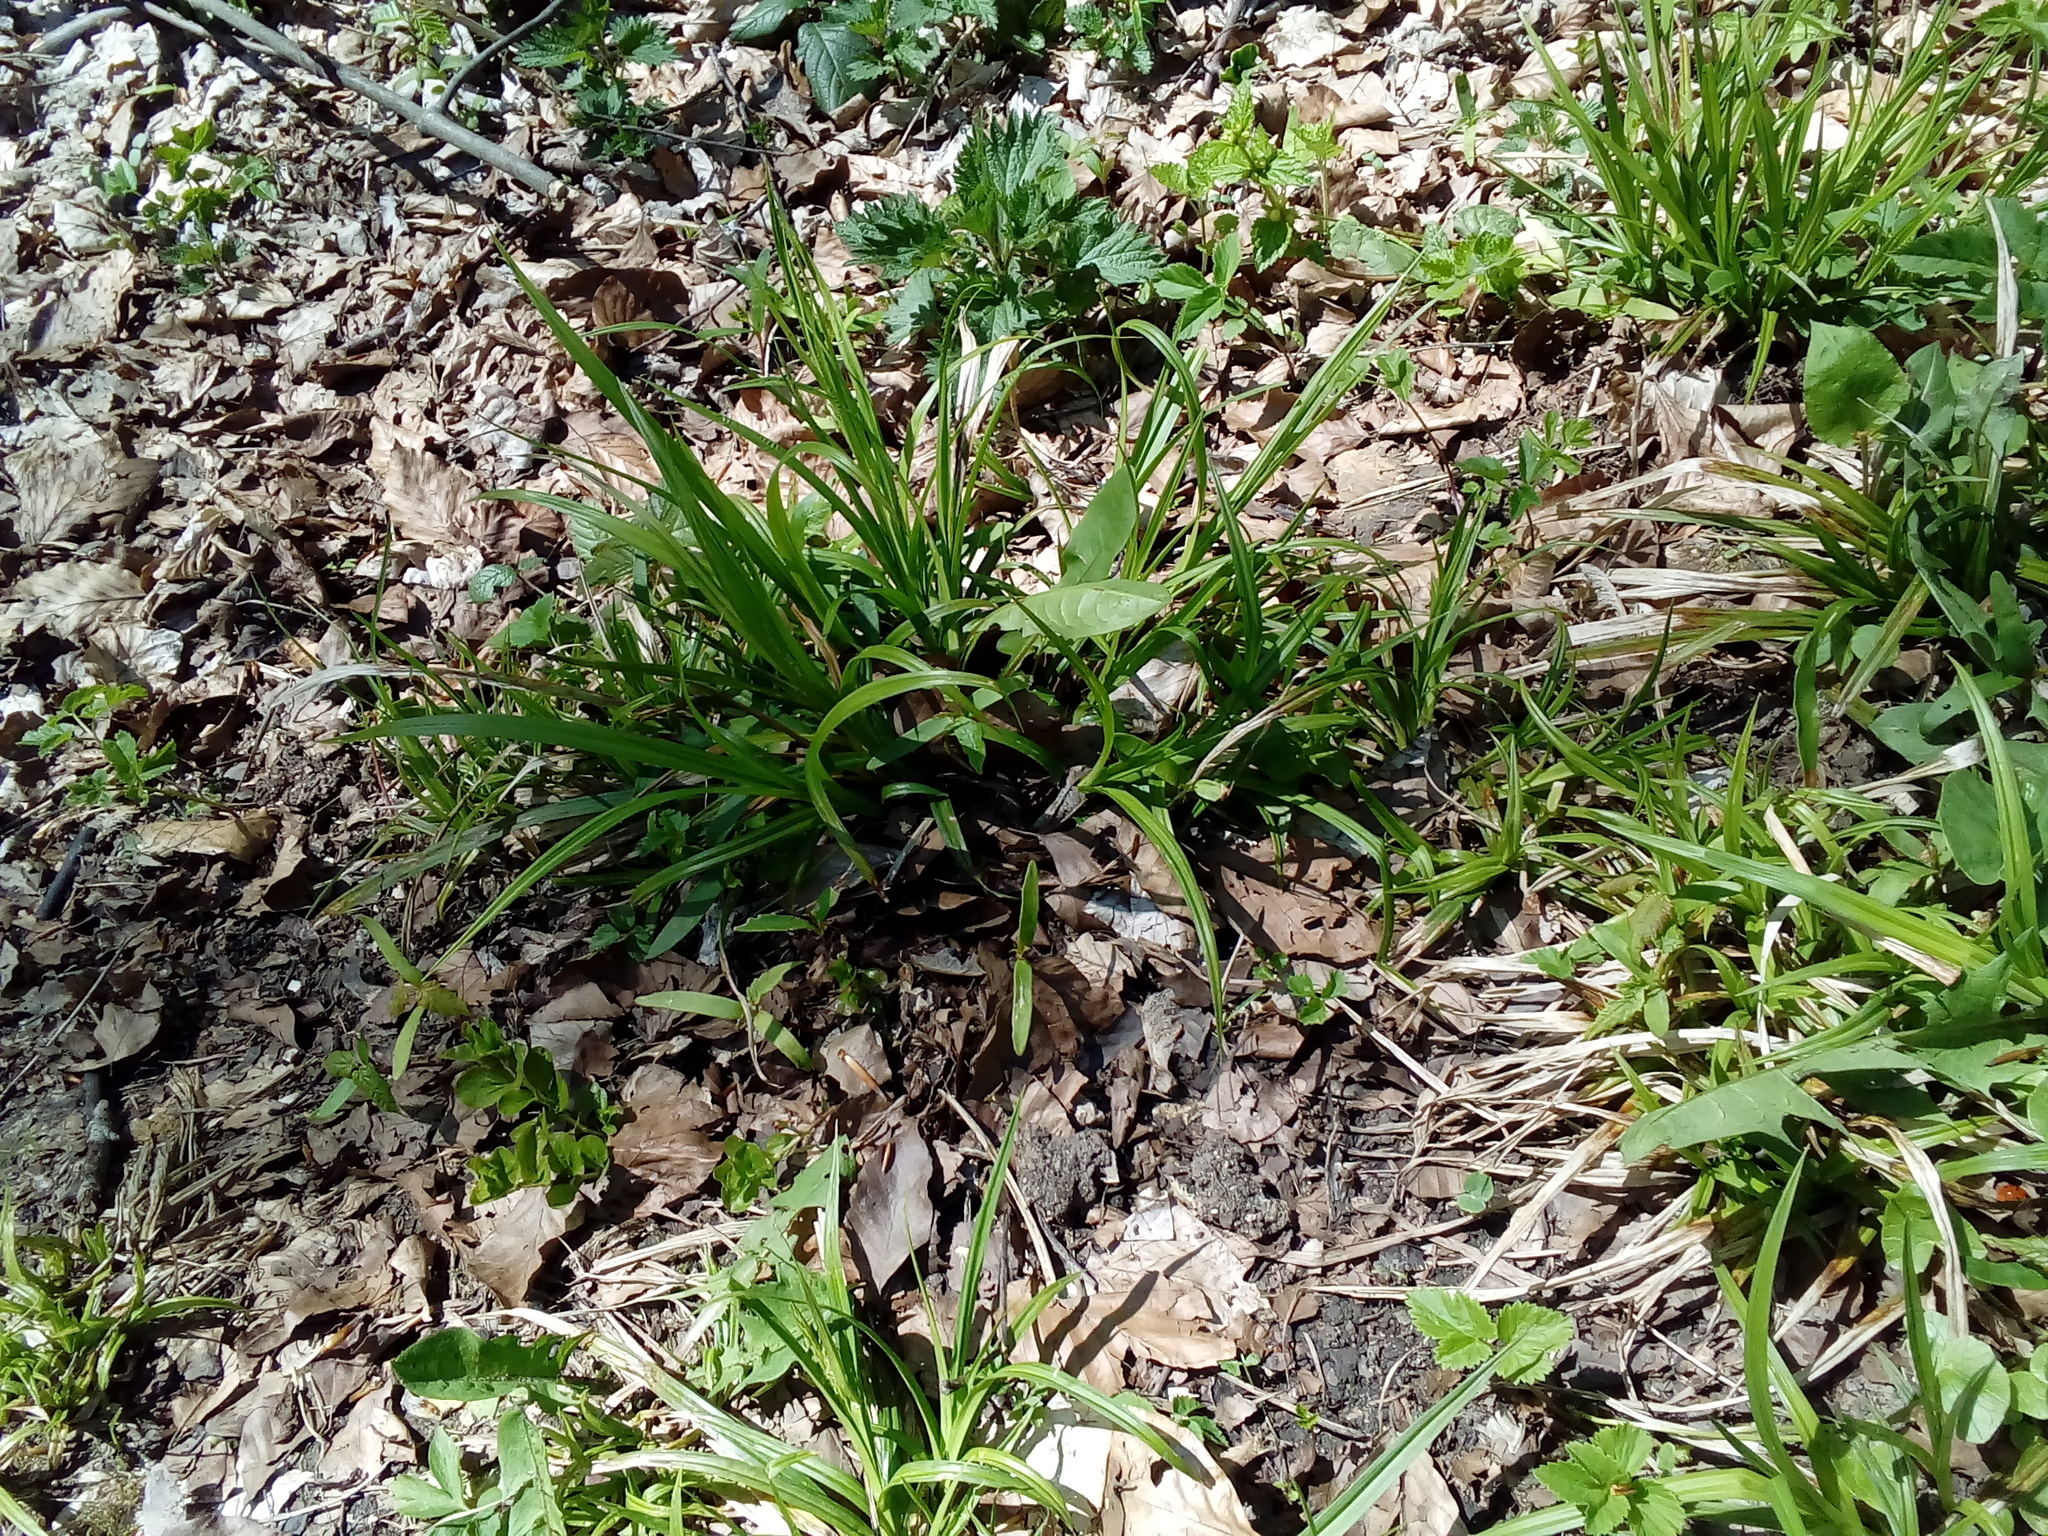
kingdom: Plantae
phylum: Tracheophyta
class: Liliopsida
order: Poales
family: Cyperaceae
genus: Carex
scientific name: Carex sylvatica
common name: Wood-sedge
